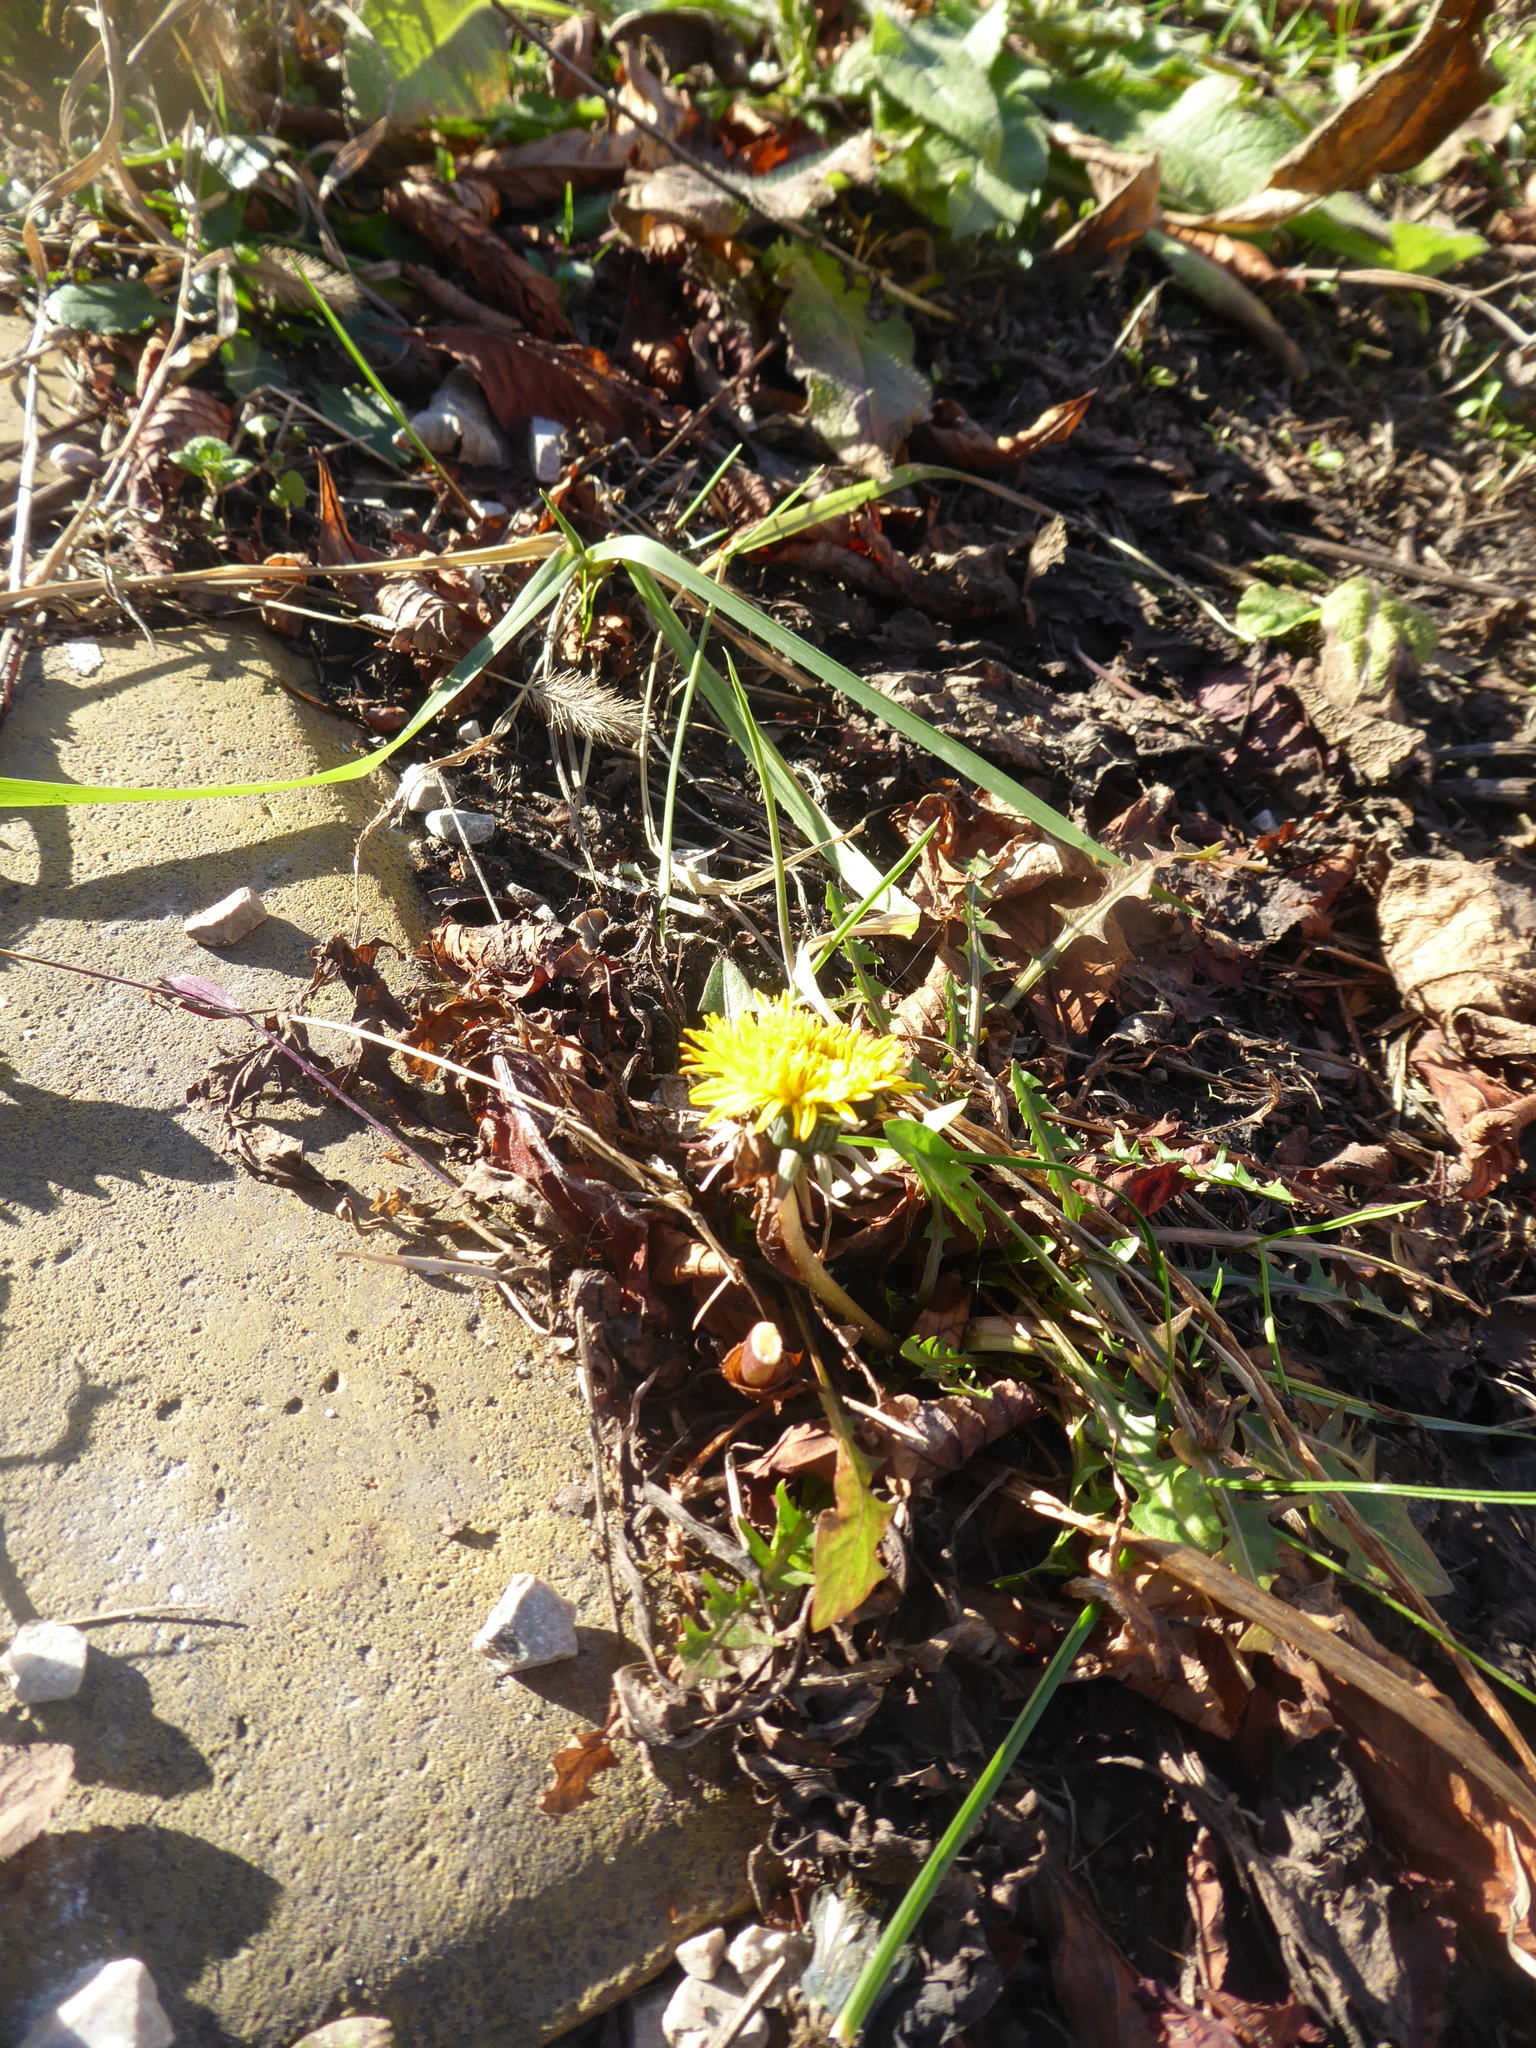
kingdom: Plantae
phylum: Tracheophyta
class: Magnoliopsida
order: Asterales
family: Asteraceae
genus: Taraxacum
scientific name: Taraxacum
